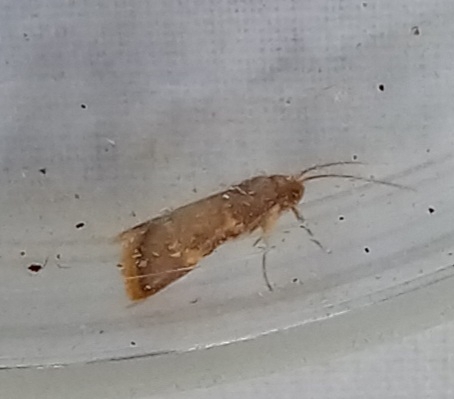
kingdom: Animalia
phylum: Arthropoda
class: Insecta
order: Lepidoptera
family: Pyralidae
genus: Hypsopygia
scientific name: Hypsopygia costalis
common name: Gold triangle
